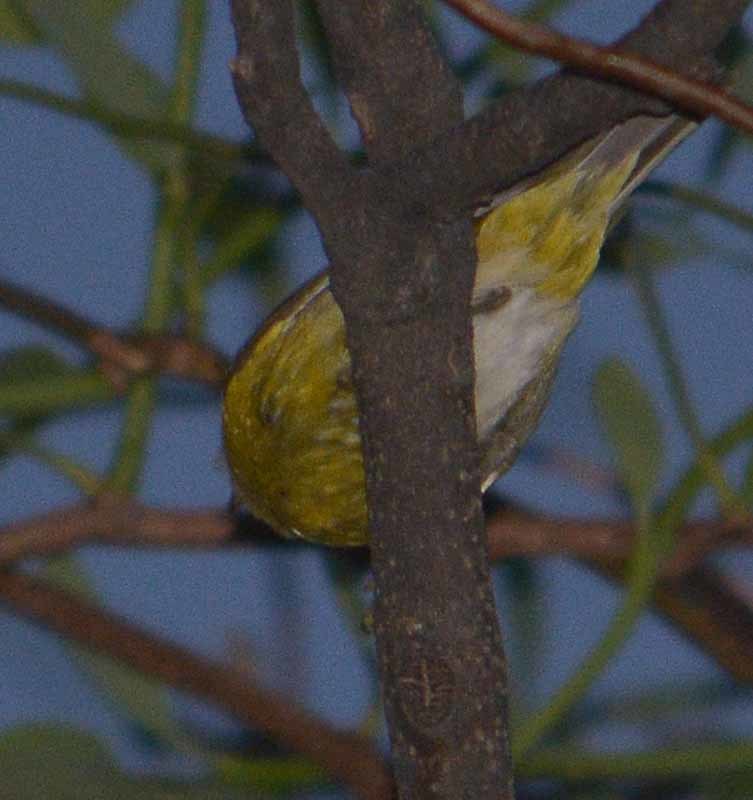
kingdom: Animalia
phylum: Chordata
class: Aves
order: Passeriformes
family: Parulidae
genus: Leiothlypis
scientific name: Leiothlypis ruficapilla
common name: Nashville warbler
